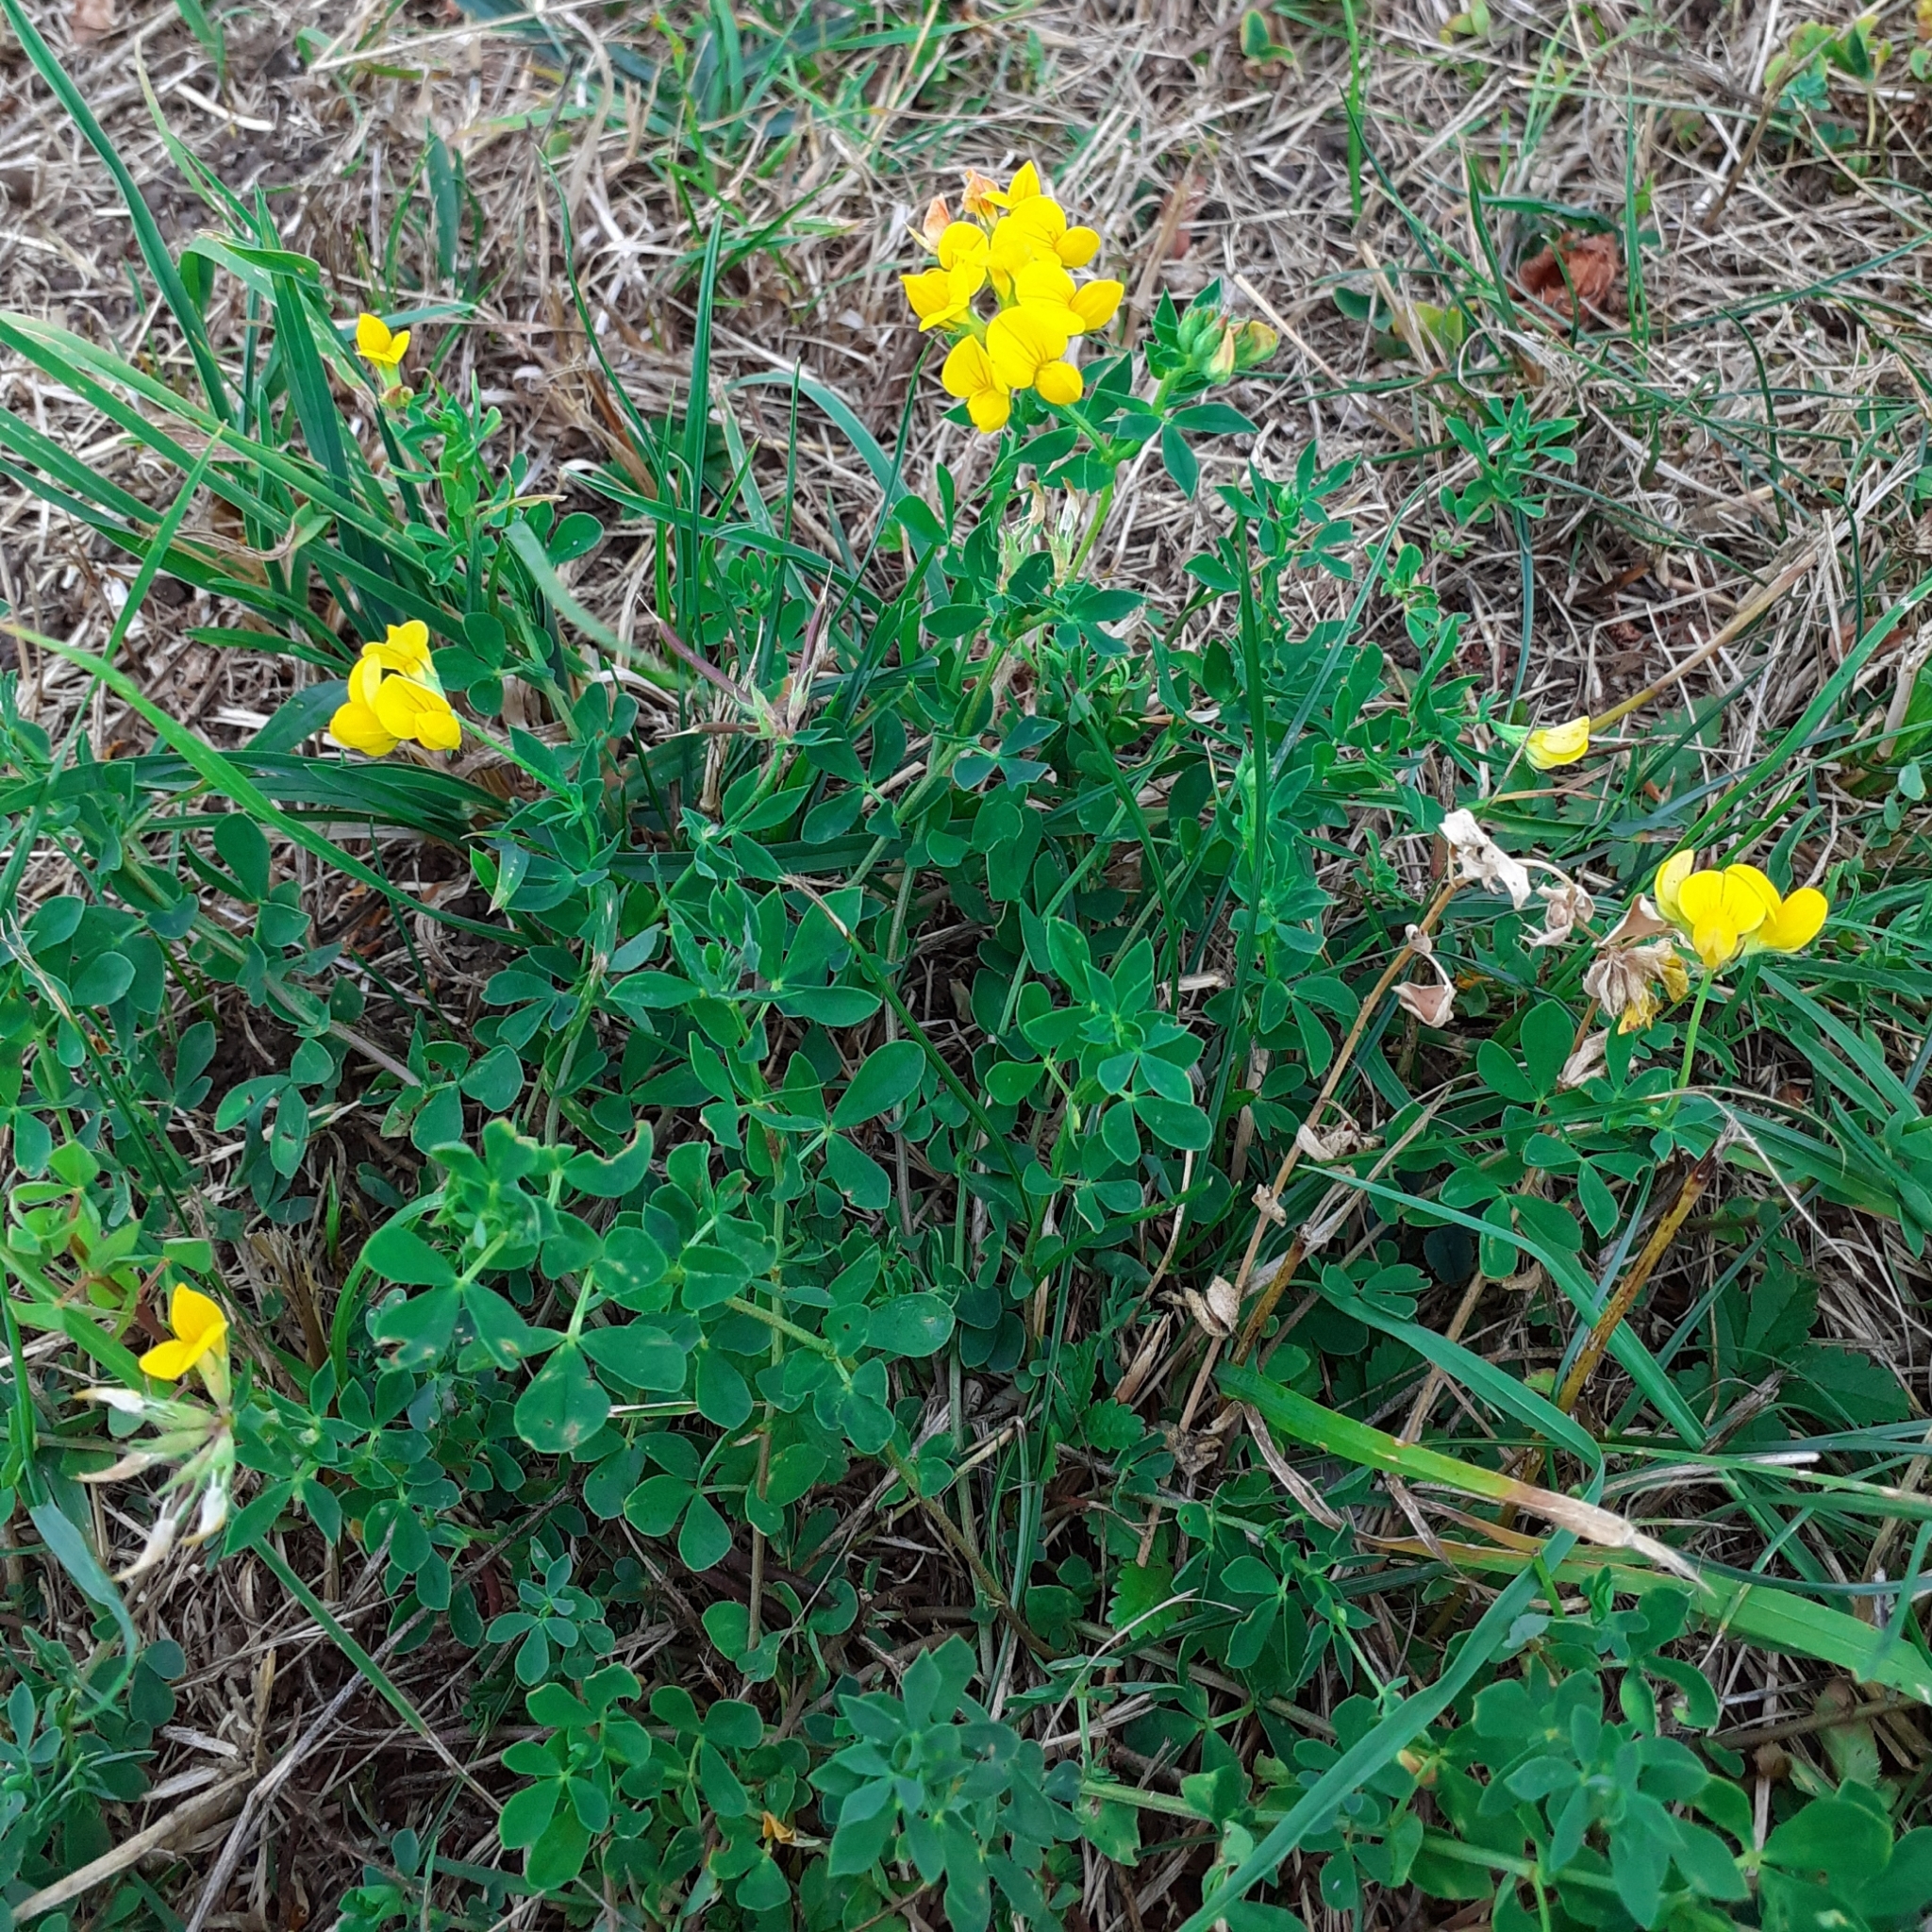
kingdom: Plantae
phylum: Tracheophyta
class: Magnoliopsida
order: Fabales
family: Fabaceae
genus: Lotus
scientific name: Lotus corniculatus
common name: Common bird's-foot-trefoil
